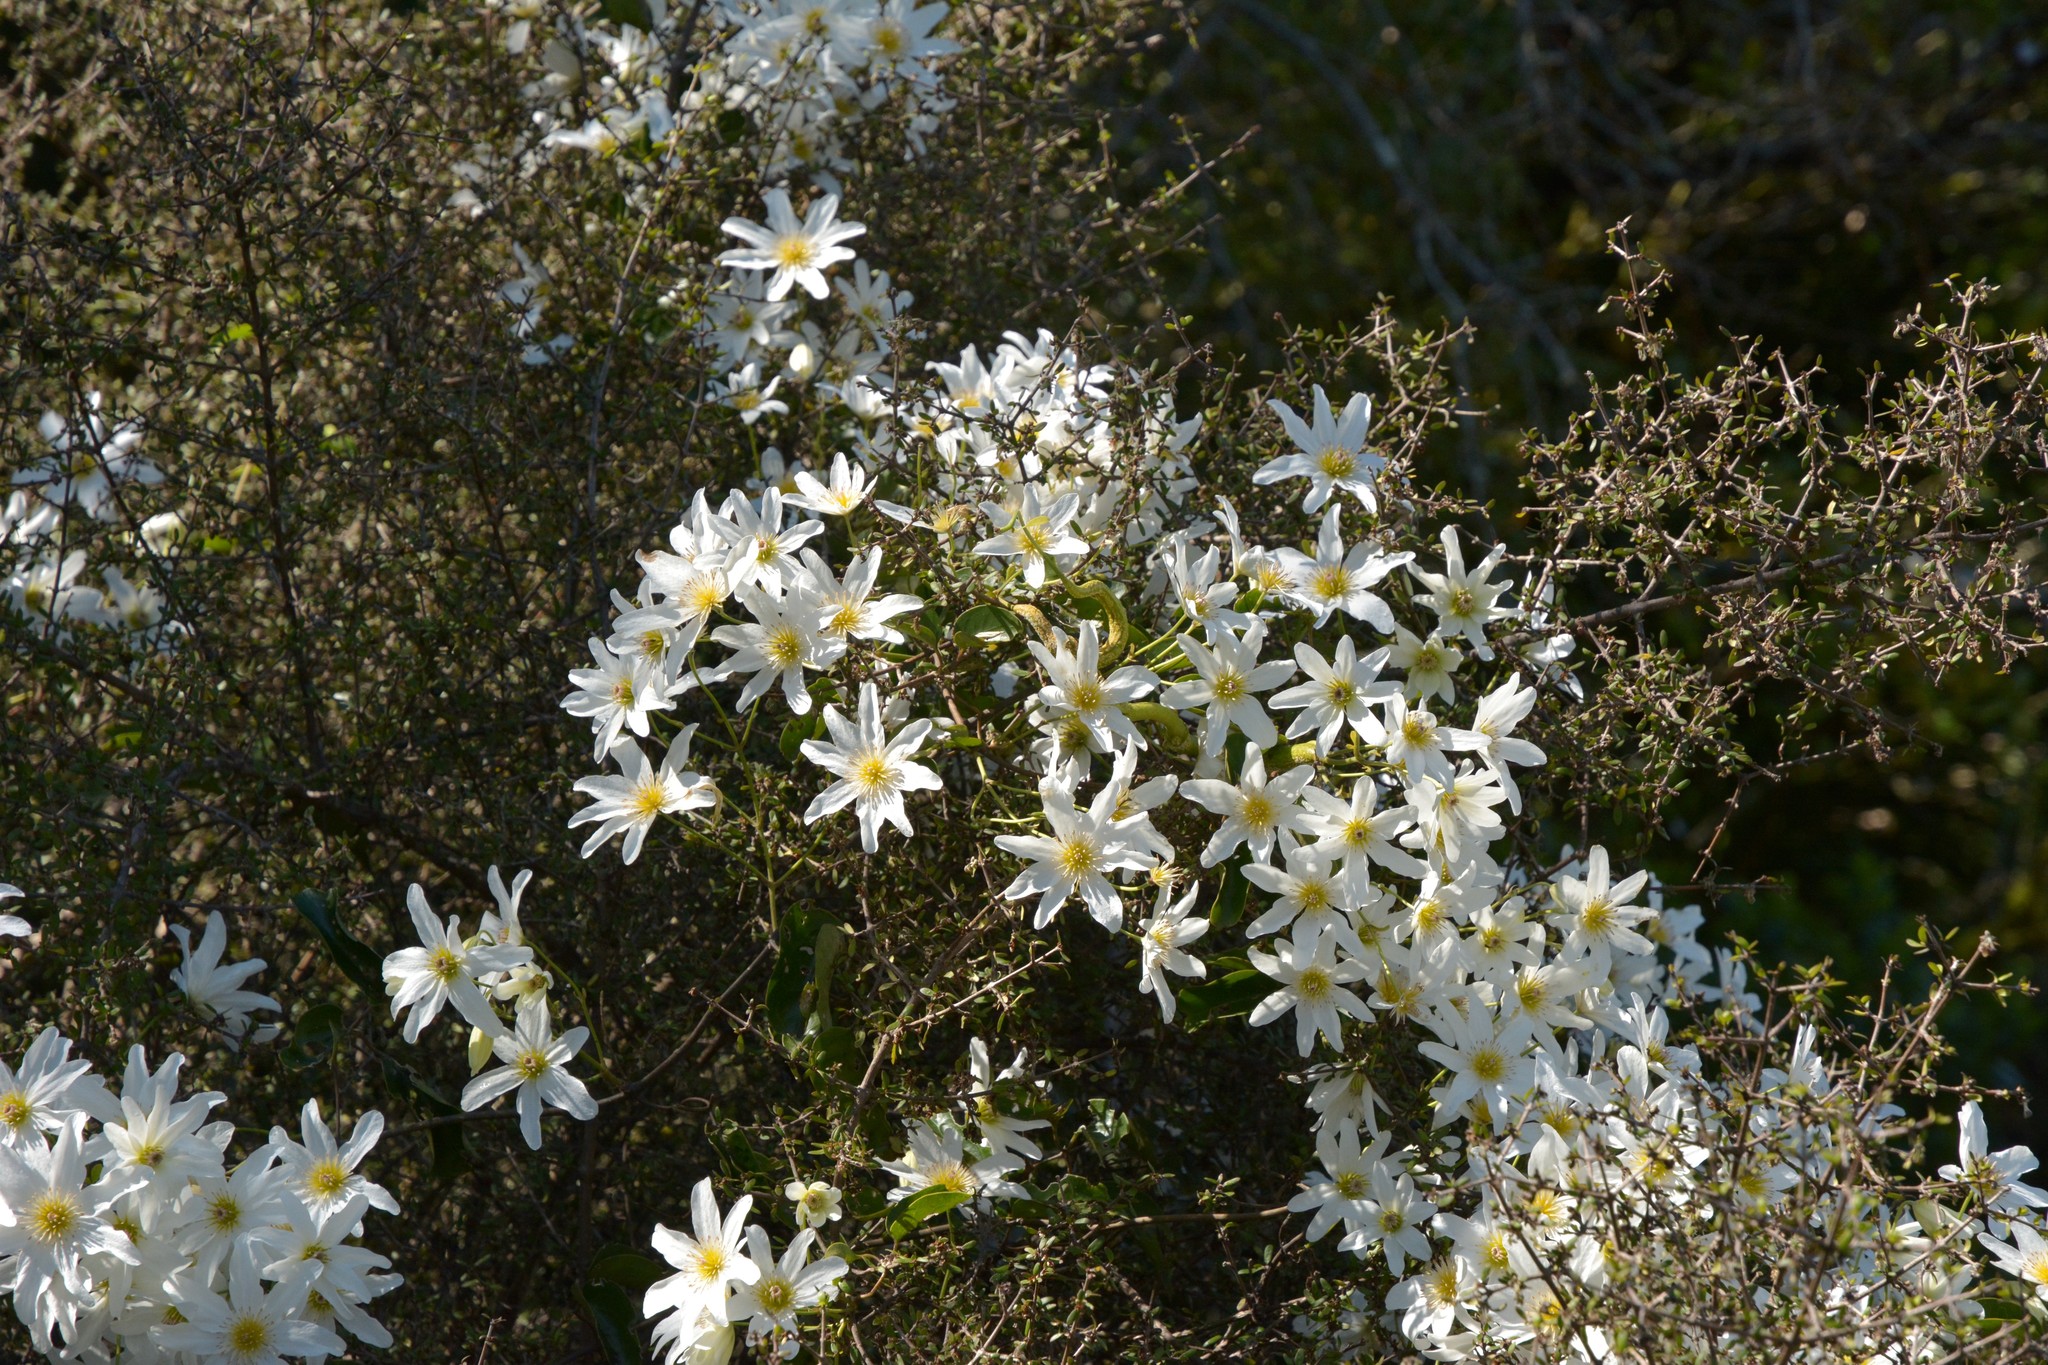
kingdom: Plantae
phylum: Tracheophyta
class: Magnoliopsida
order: Ranunculales
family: Ranunculaceae
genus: Clematis
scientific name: Clematis paniculata
